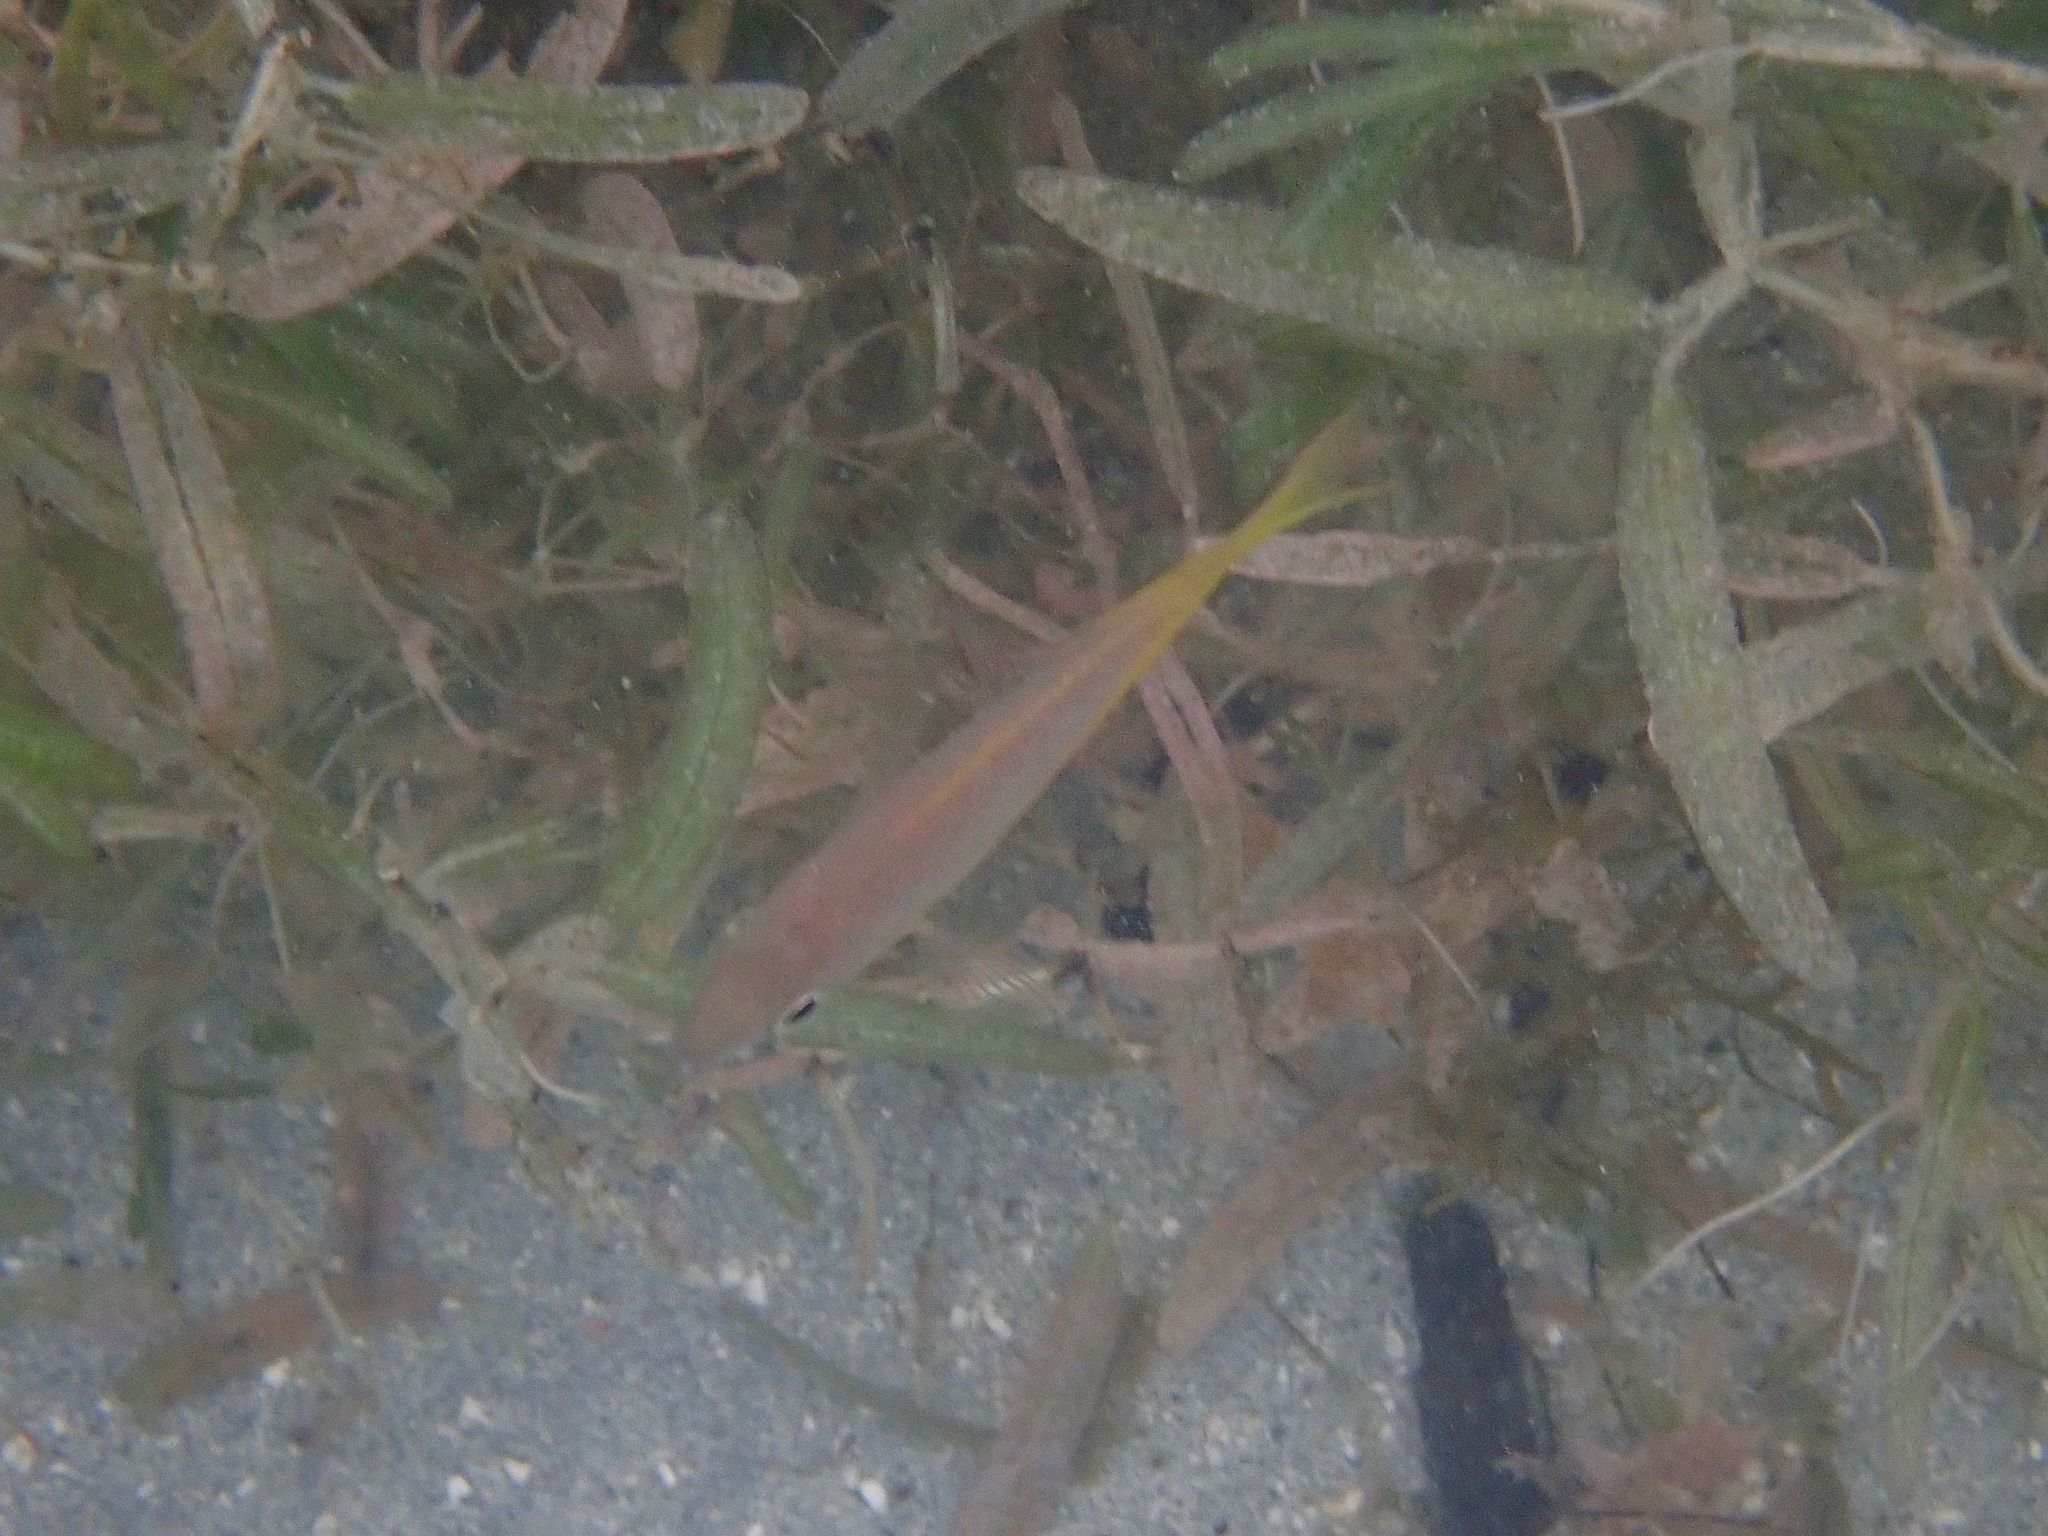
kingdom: Animalia
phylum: Chordata
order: Perciformes
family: Lutjanidae
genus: Ocyurus
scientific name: Ocyurus chrysurus
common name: Yellowtail snapper
